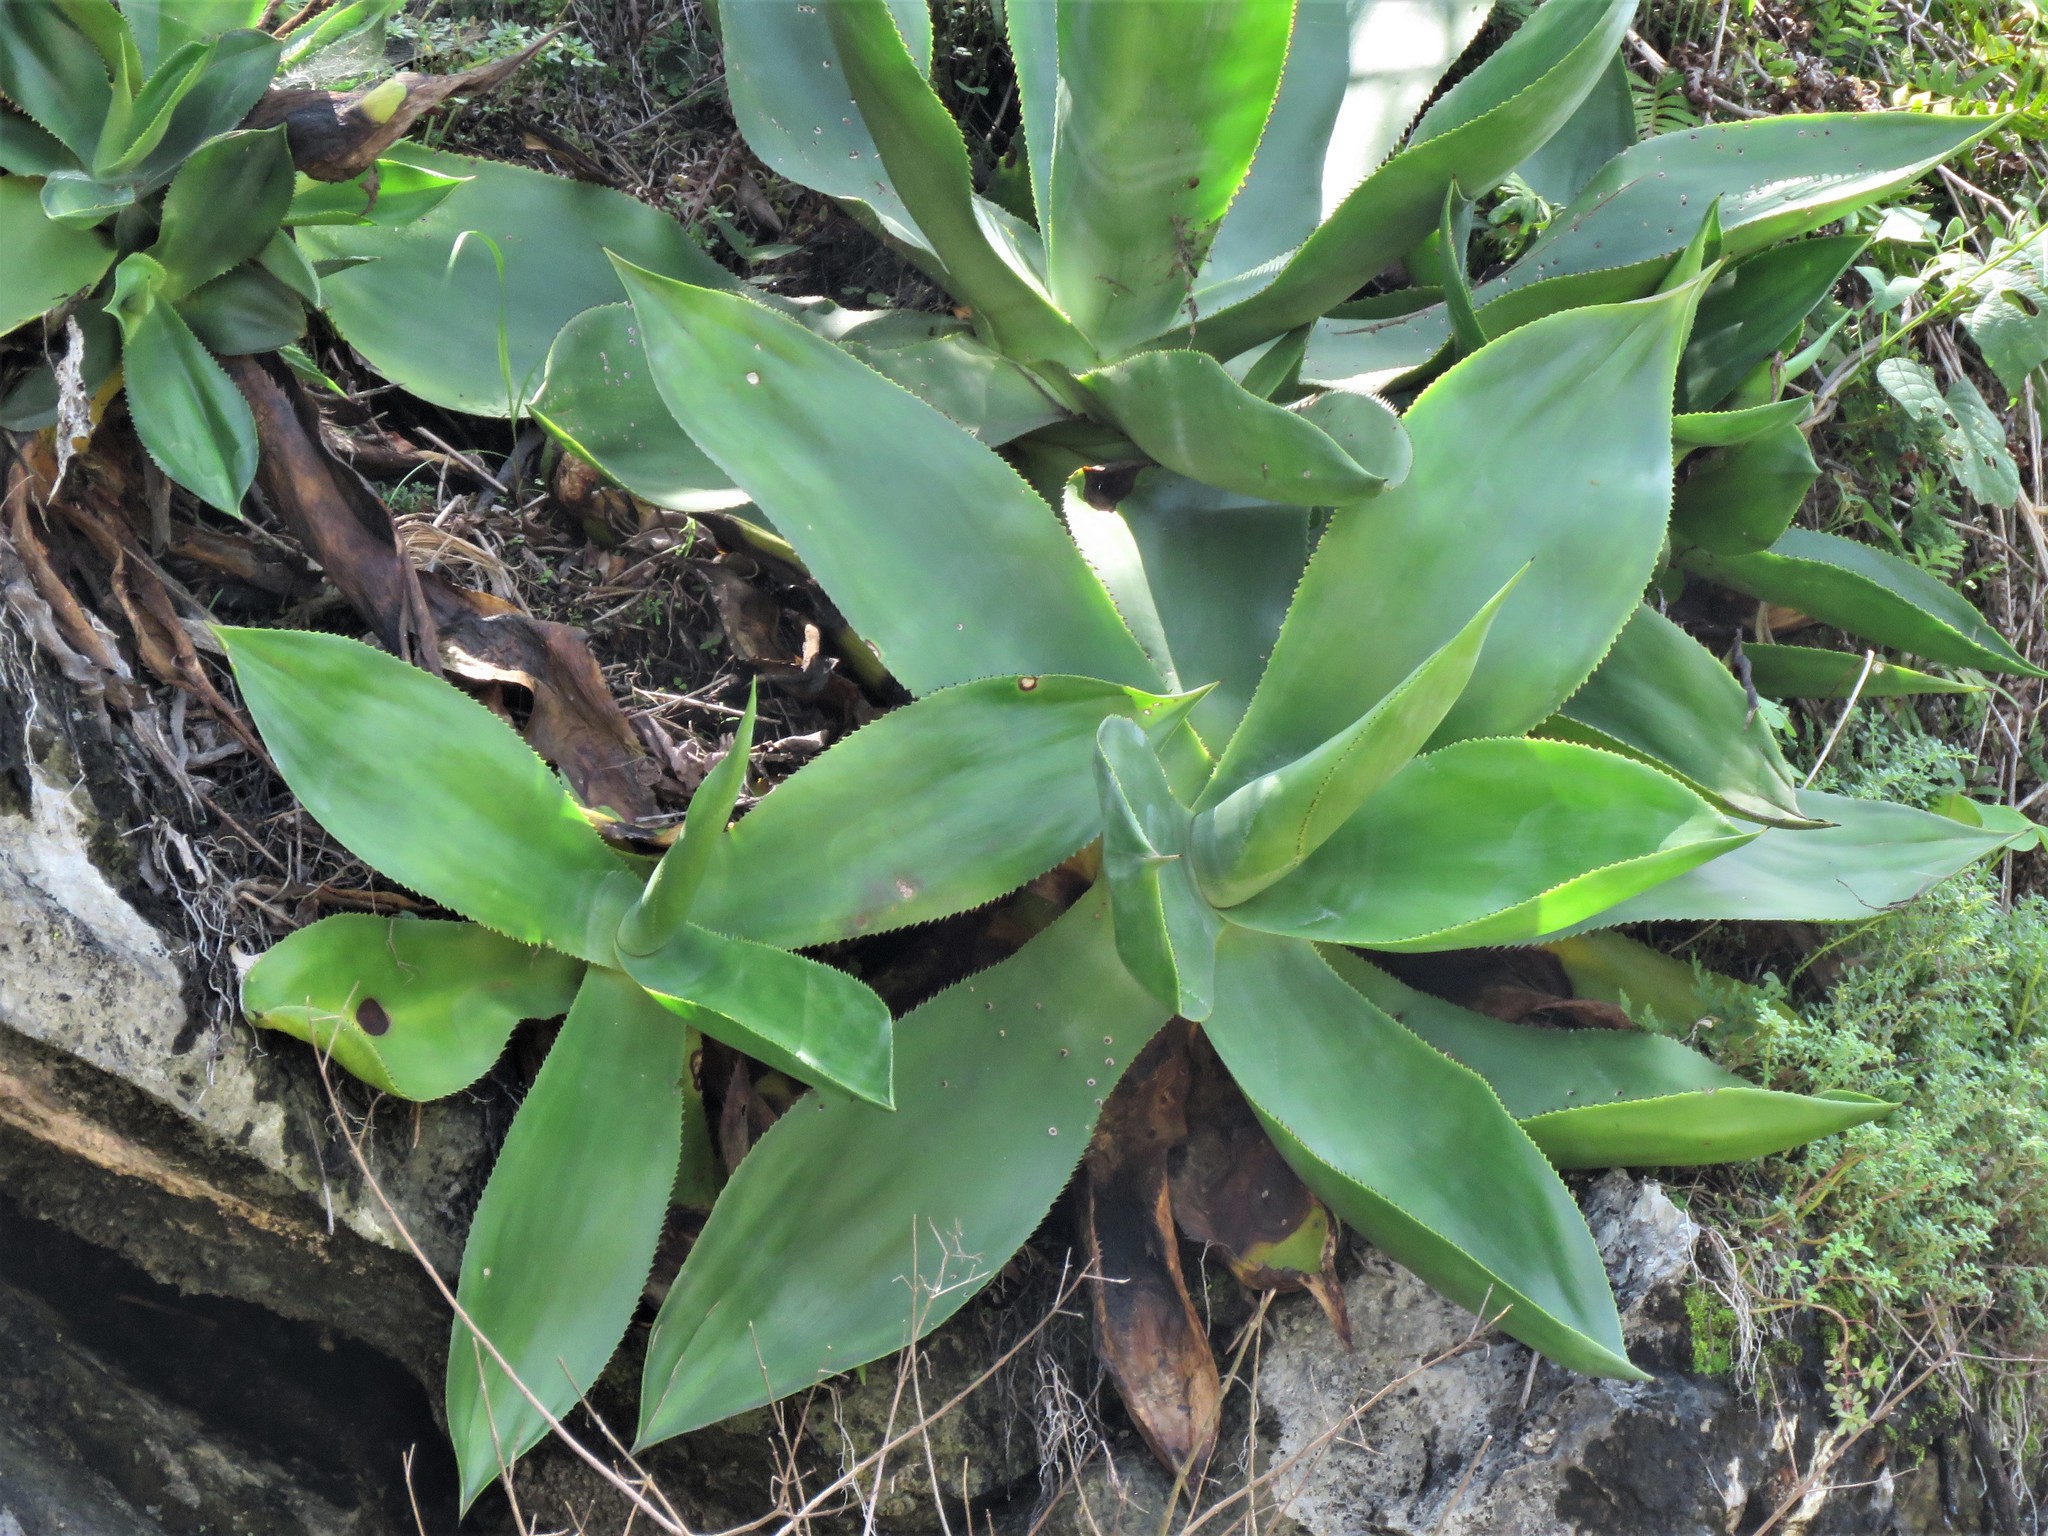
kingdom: Plantae
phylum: Tracheophyta
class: Liliopsida
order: Asparagales
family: Asparagaceae
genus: Agave
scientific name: Agave mitis
